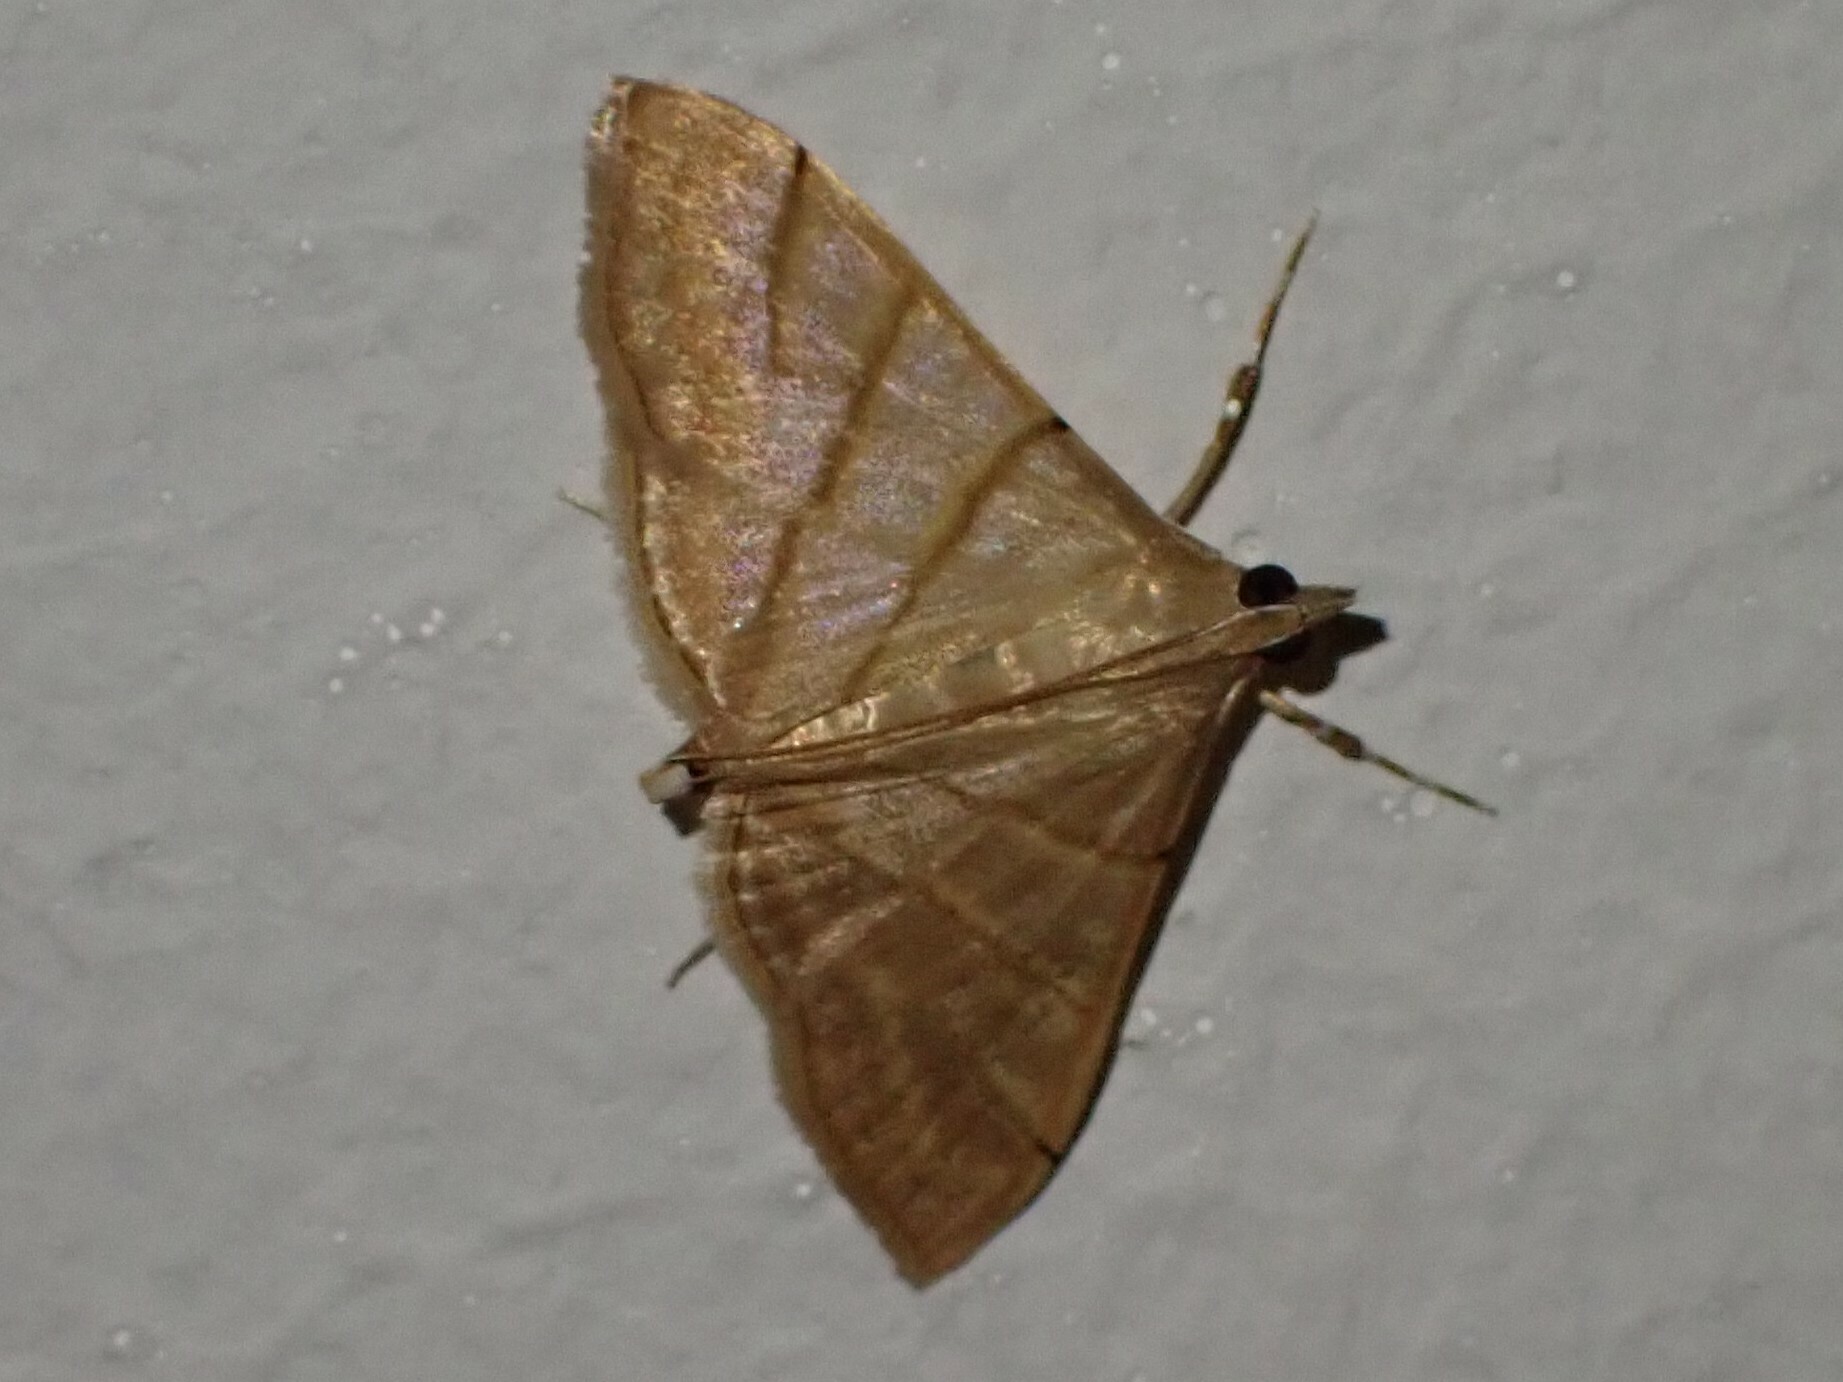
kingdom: Animalia
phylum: Arthropoda
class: Insecta
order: Lepidoptera
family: Crambidae
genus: Pagyda
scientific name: Pagyda salvalis
